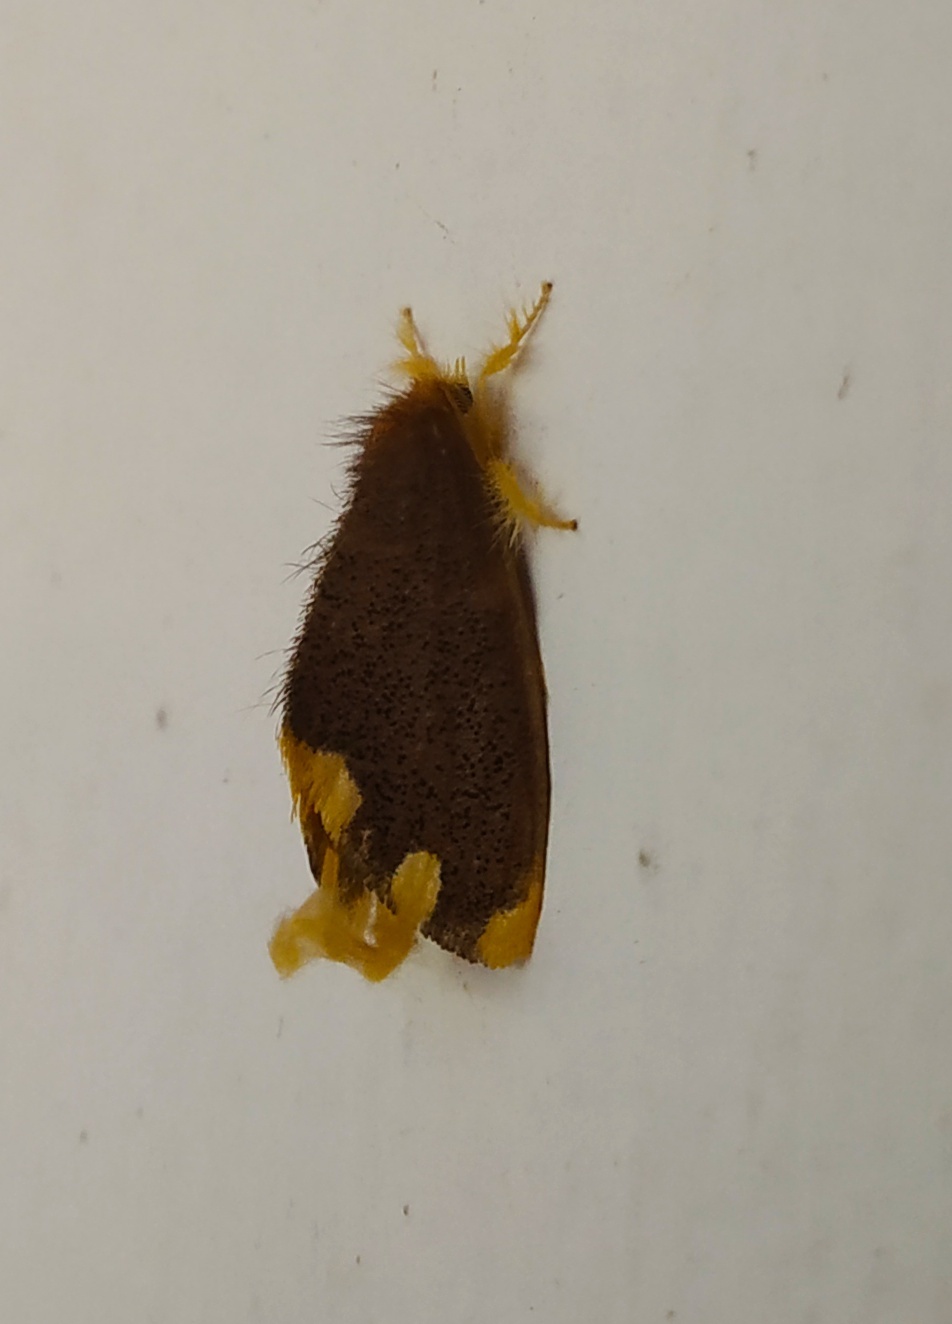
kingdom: Animalia
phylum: Arthropoda
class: Insecta
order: Lepidoptera
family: Erebidae
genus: Orvasca
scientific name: Orvasca subnotata
